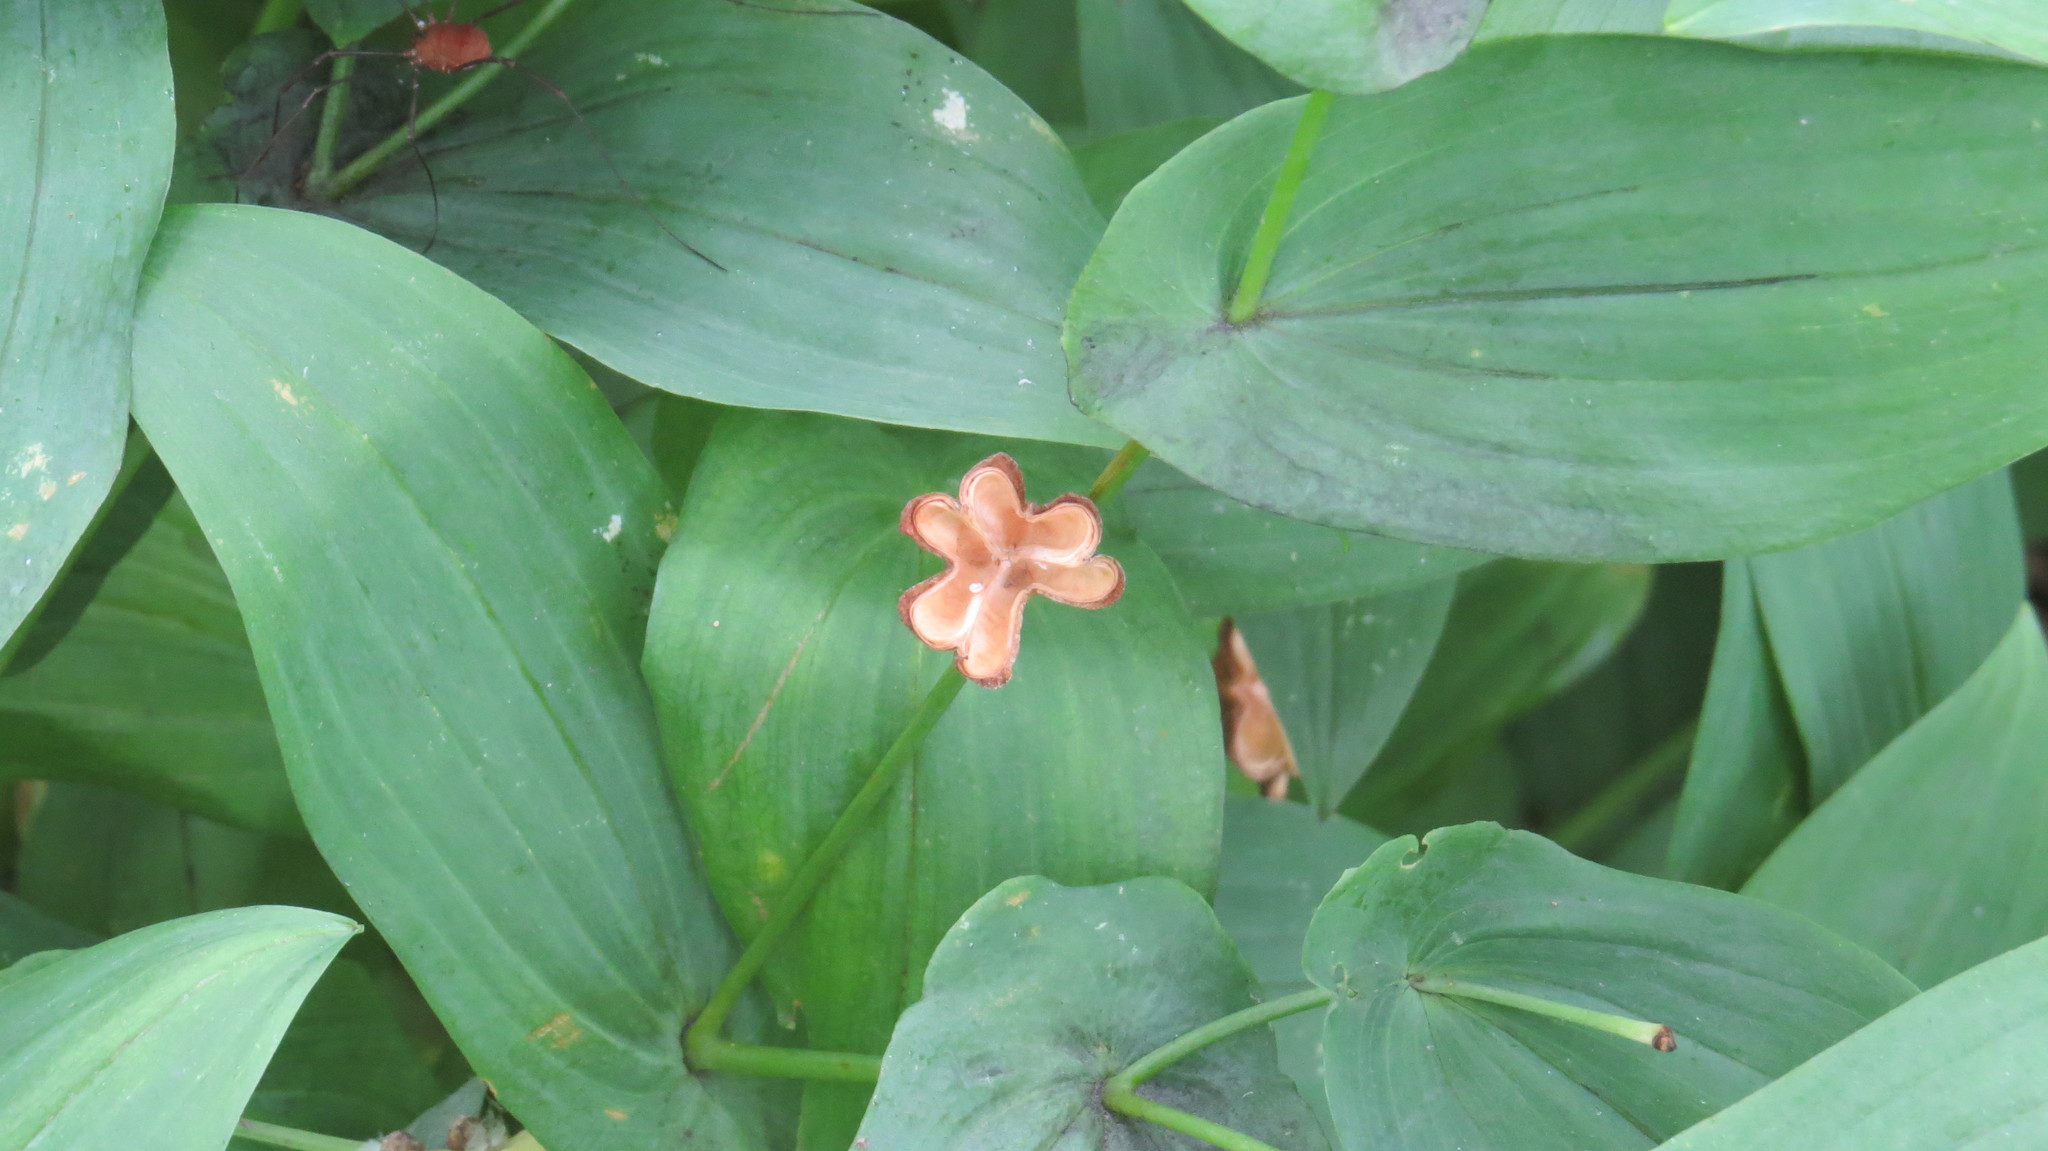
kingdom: Plantae
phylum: Tracheophyta
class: Liliopsida
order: Liliales
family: Colchicaceae
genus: Uvularia
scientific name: Uvularia grandiflora
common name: Bellwort
